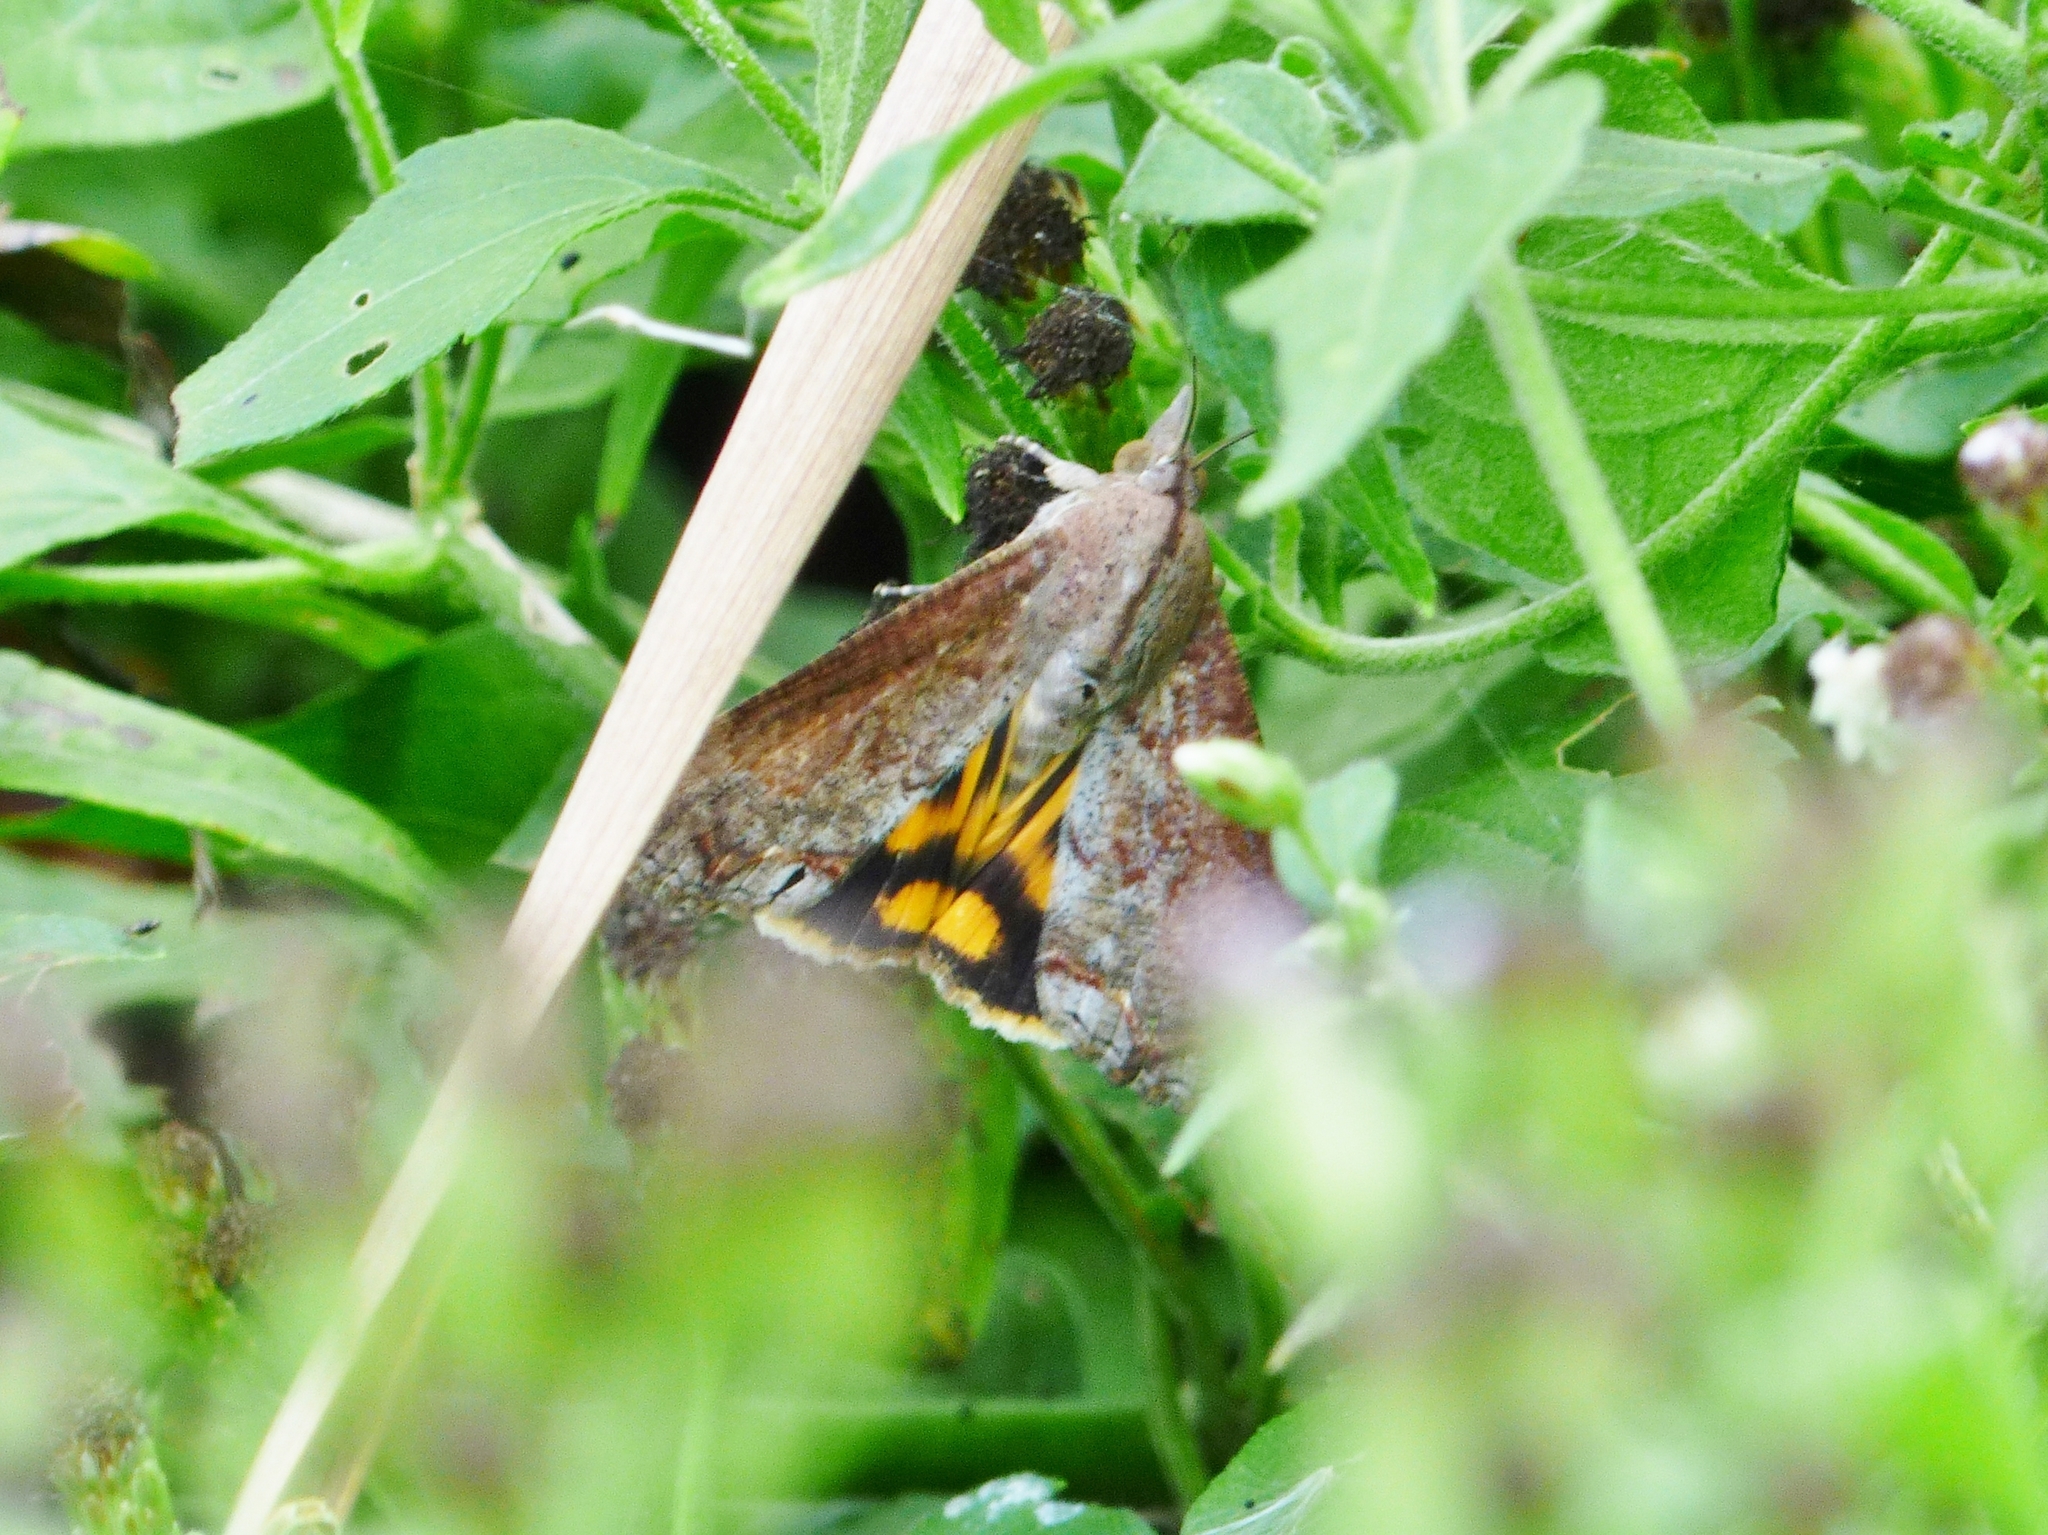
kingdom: Animalia
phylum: Arthropoda
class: Insecta
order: Lepidoptera
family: Erebidae
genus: Hypocala
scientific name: Hypocala andremona
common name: Hypocala moth
